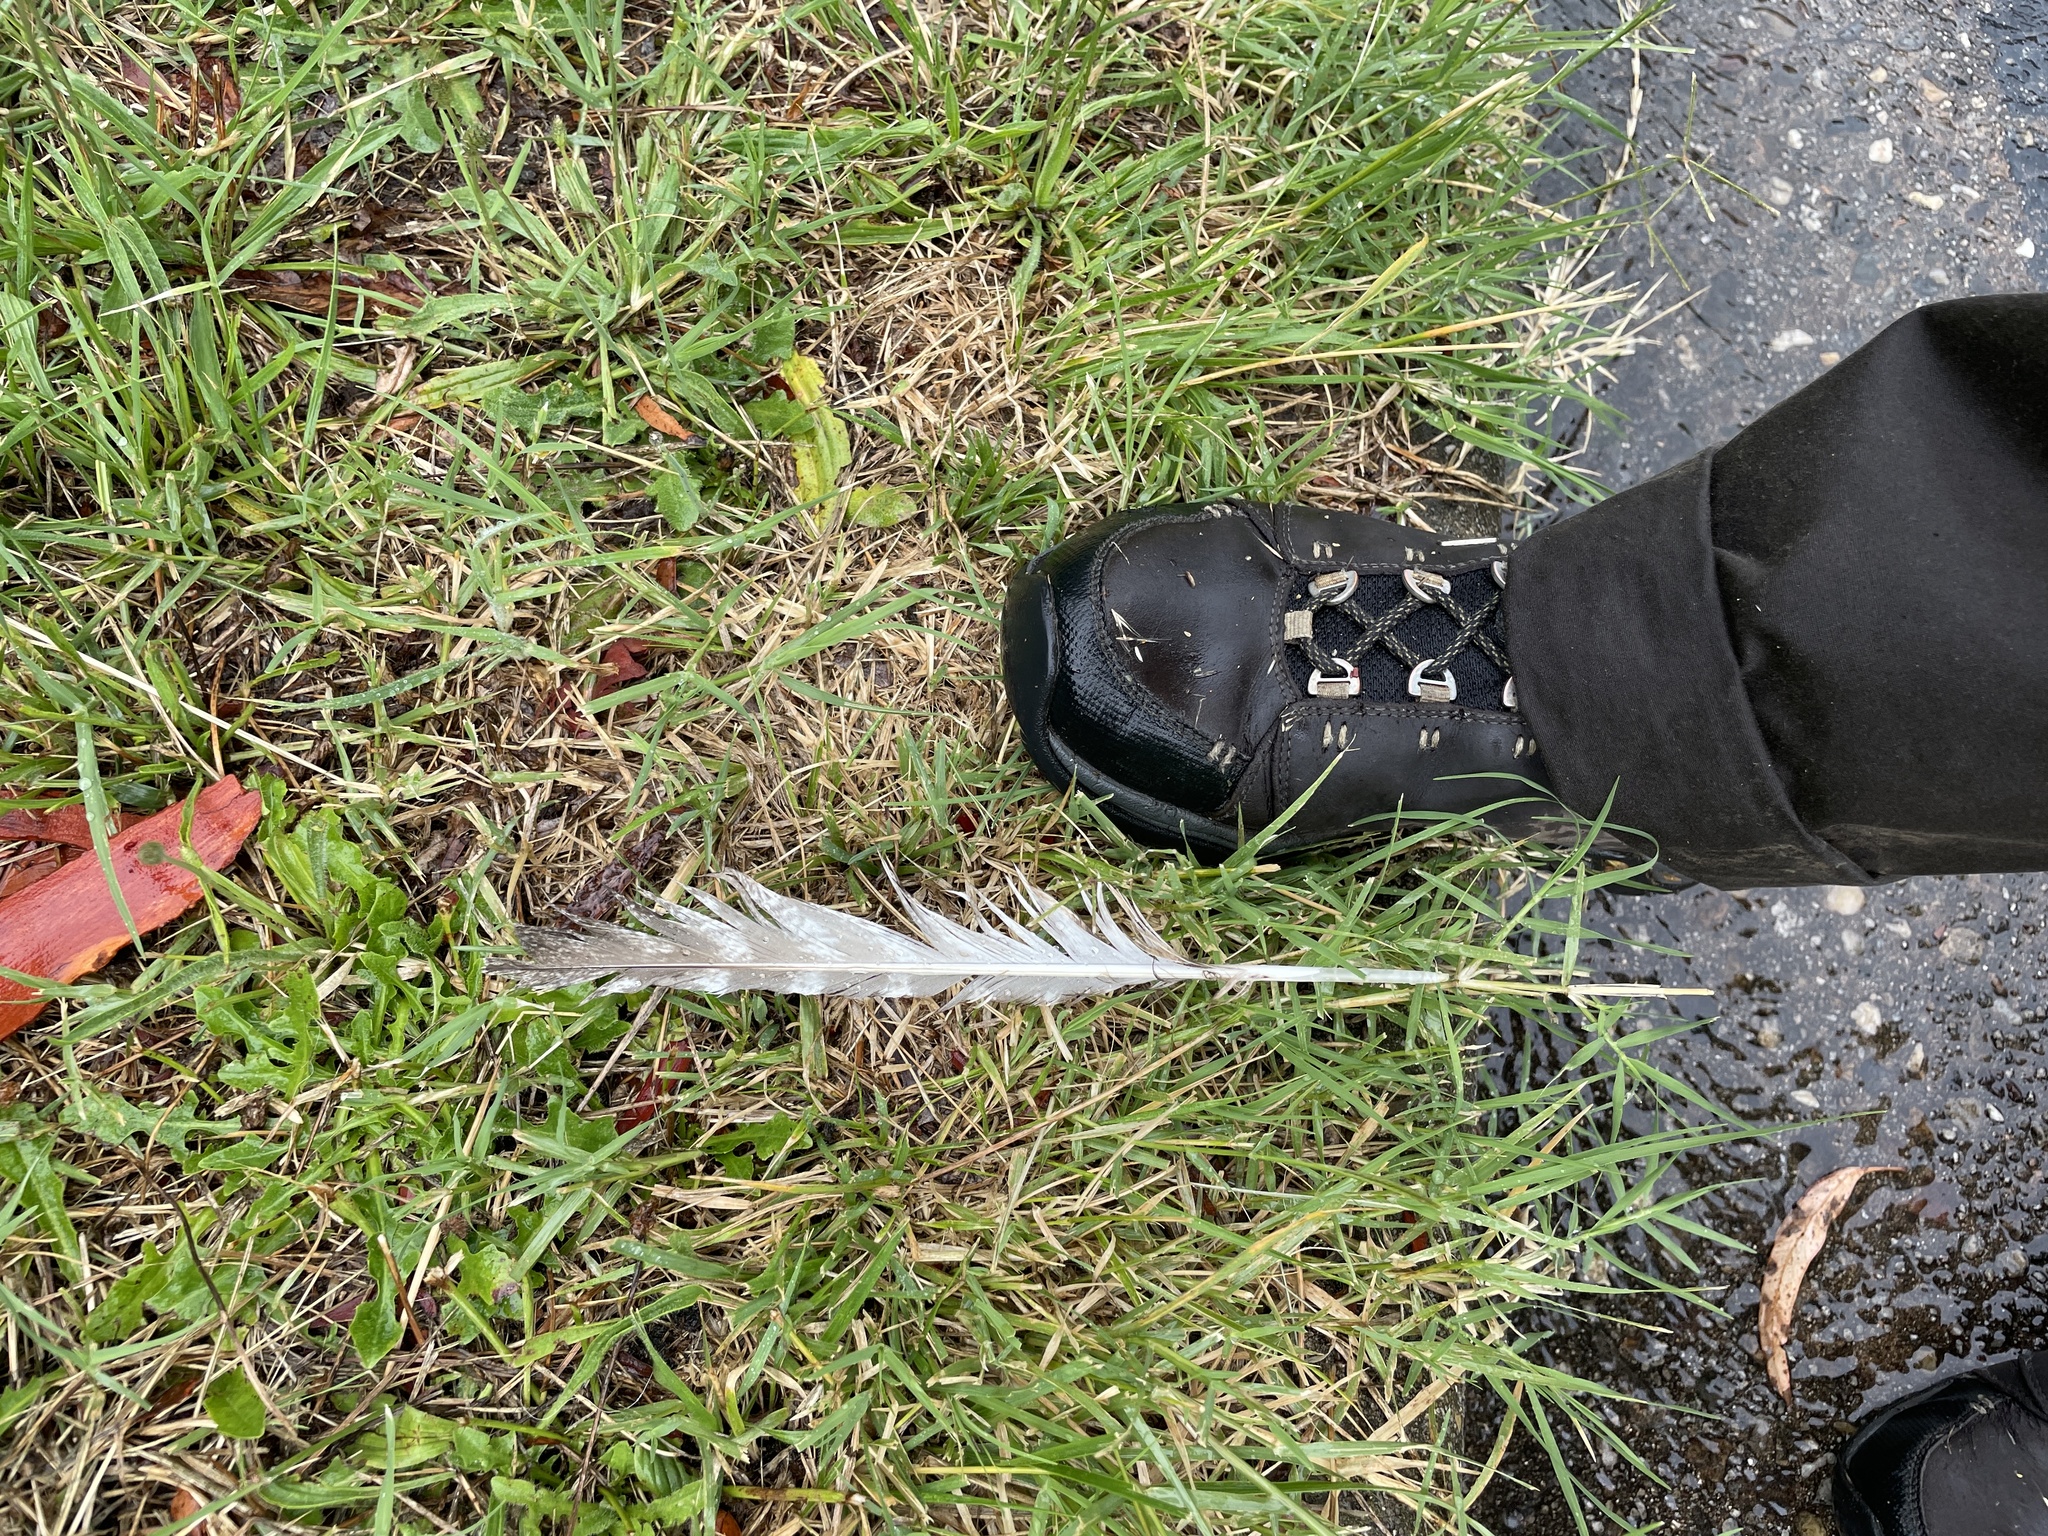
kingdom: Animalia
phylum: Chordata
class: Aves
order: Caprimulgiformes
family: Podargidae
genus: Podargus
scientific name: Podargus strigoides
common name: Tawny frogmouth
